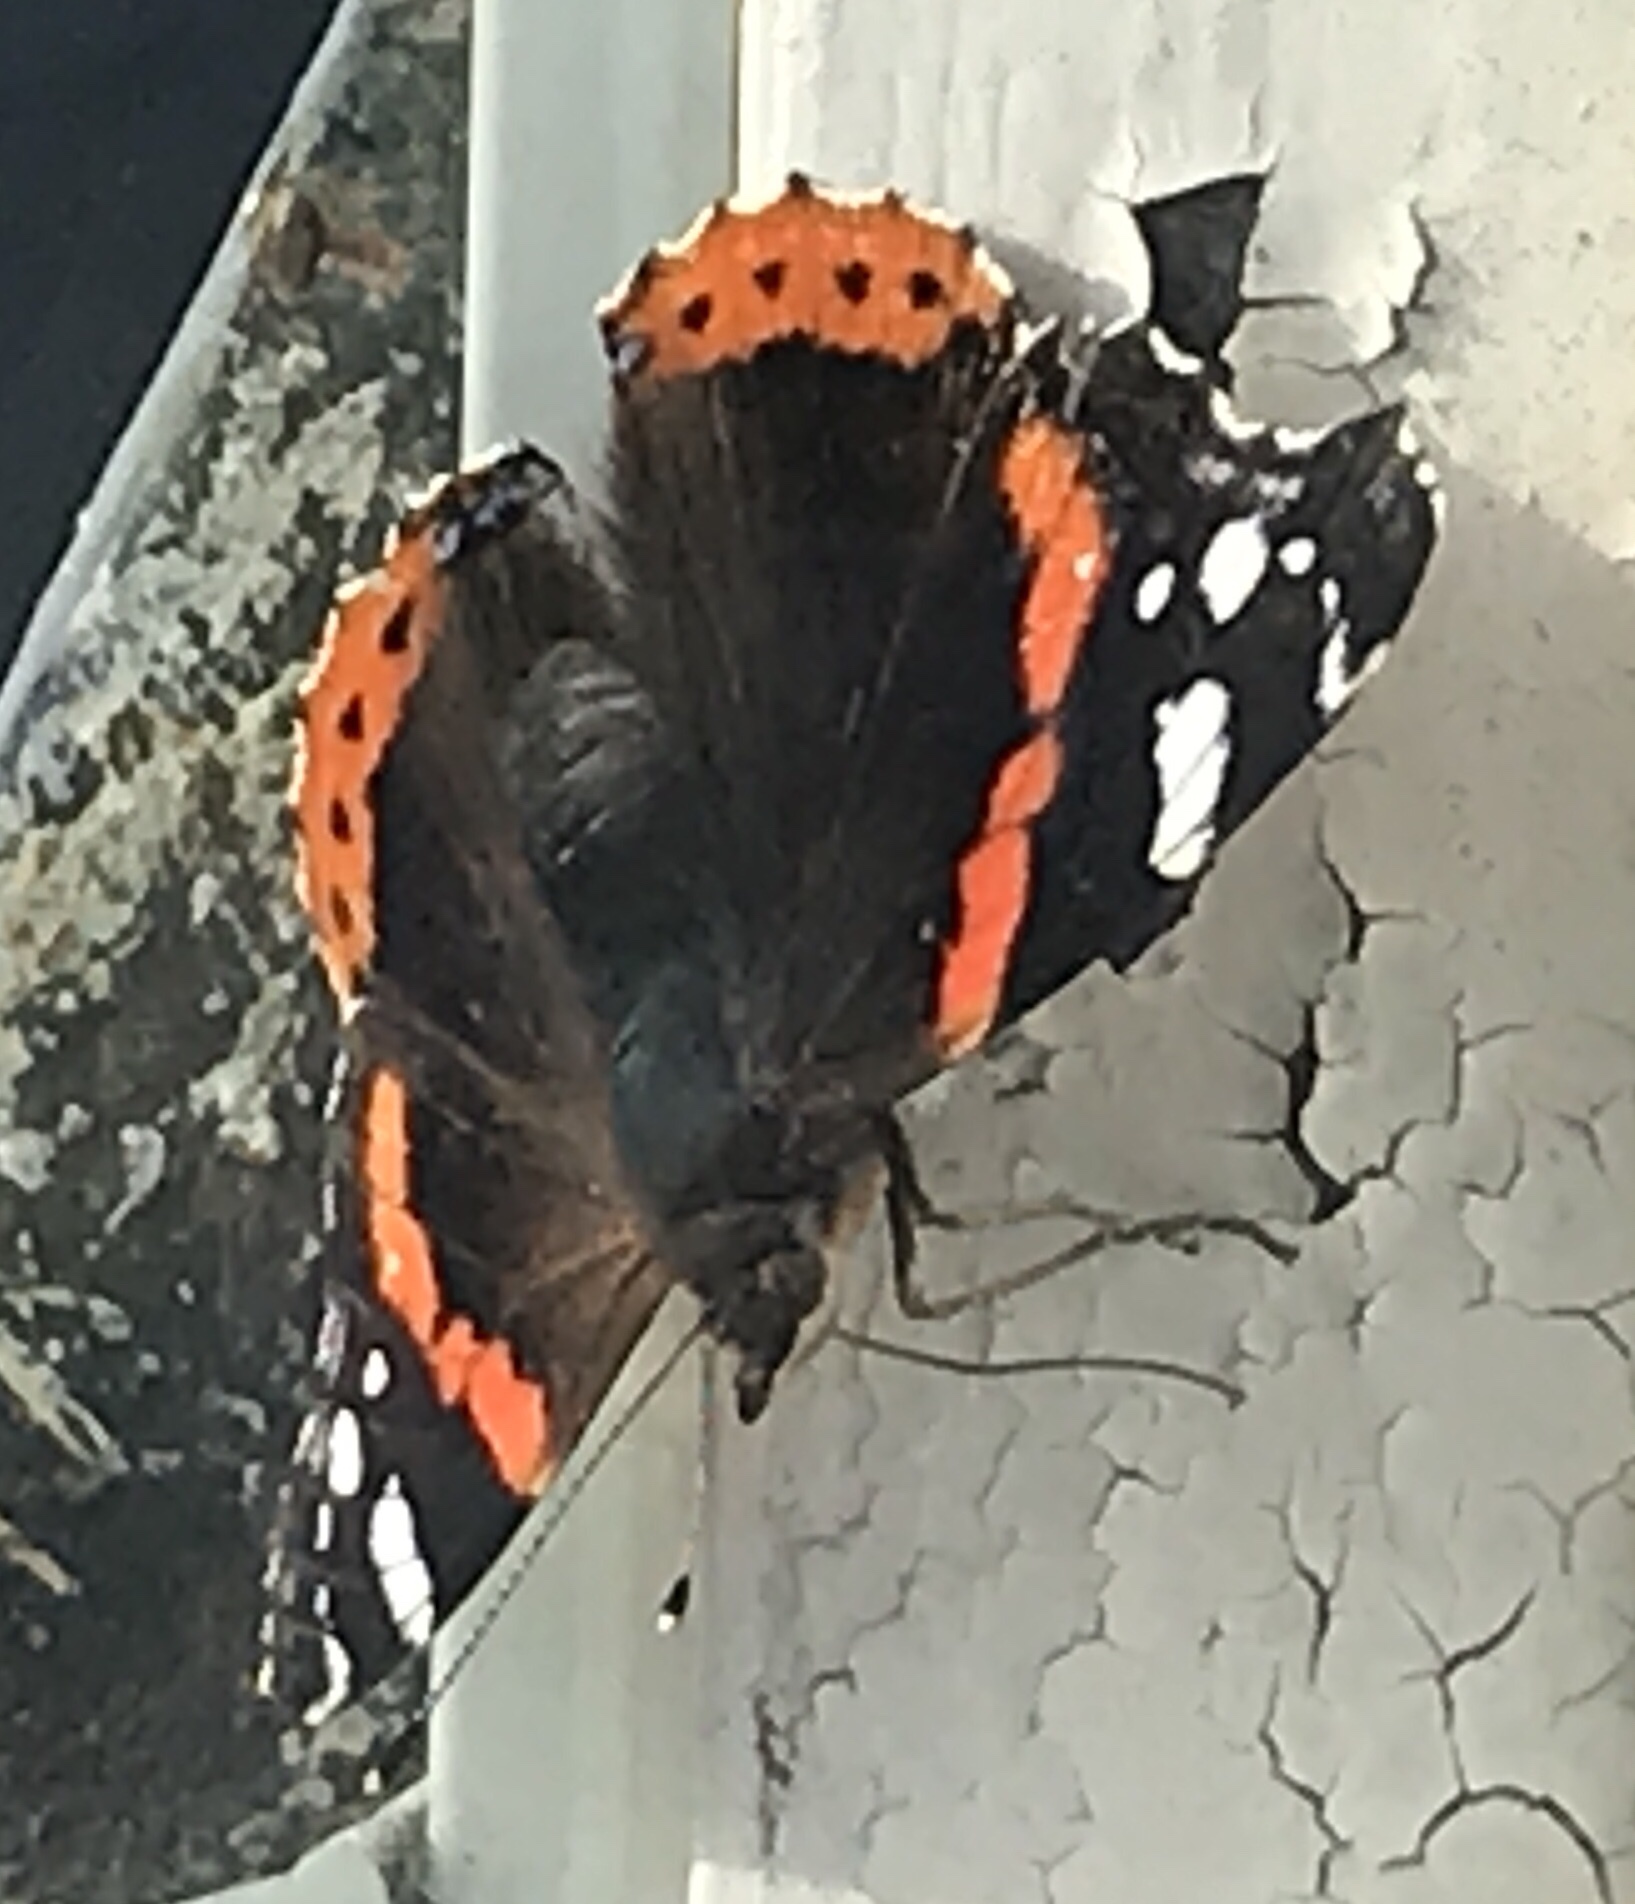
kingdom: Animalia
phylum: Arthropoda
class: Insecta
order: Lepidoptera
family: Nymphalidae
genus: Vanessa
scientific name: Vanessa atalanta
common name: Red admiral
